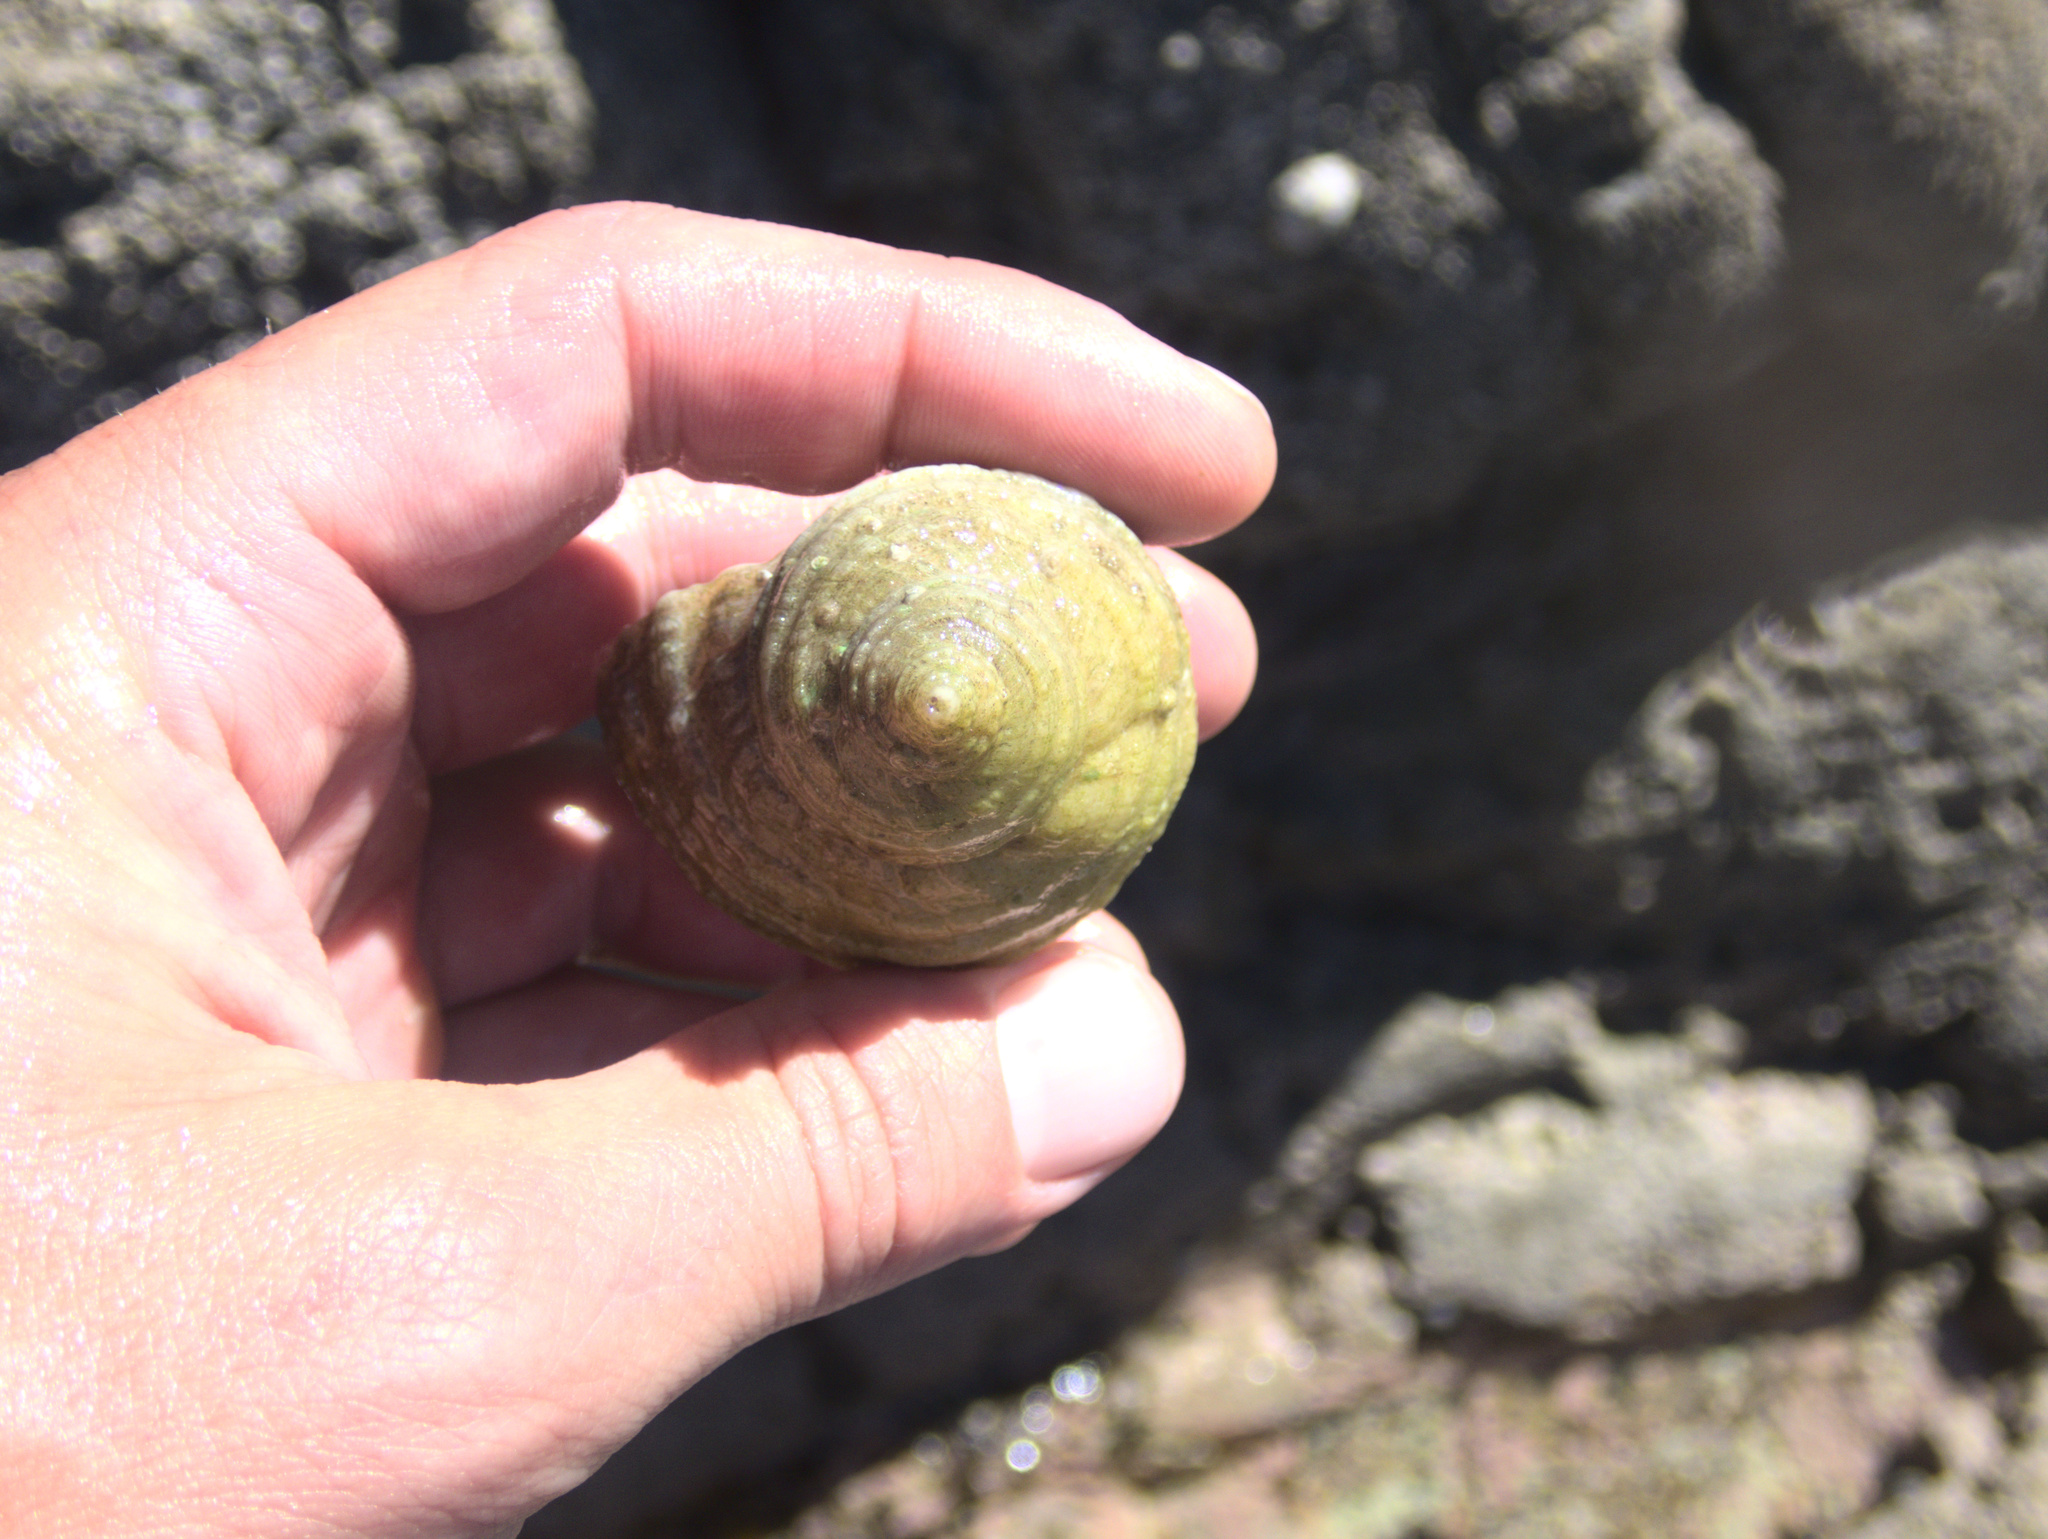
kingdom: Animalia
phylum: Mollusca
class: Gastropoda
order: Neogastropoda
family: Muricidae
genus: Dicathais
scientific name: Dicathais orbita
